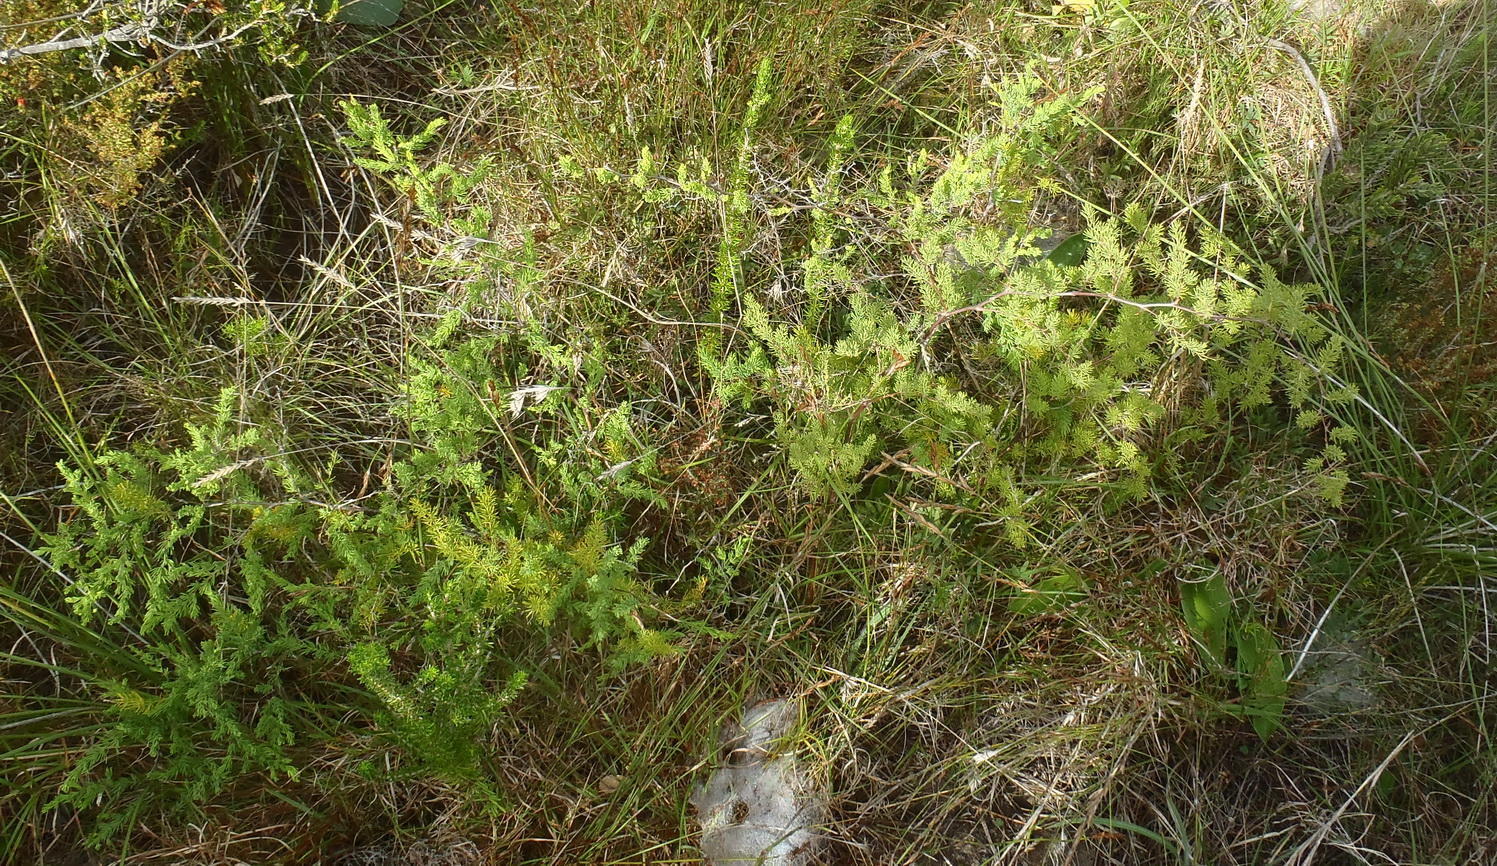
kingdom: Plantae
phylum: Tracheophyta
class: Liliopsida
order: Asparagales
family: Asparagaceae
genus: Asparagus
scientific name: Asparagus rubicundus
